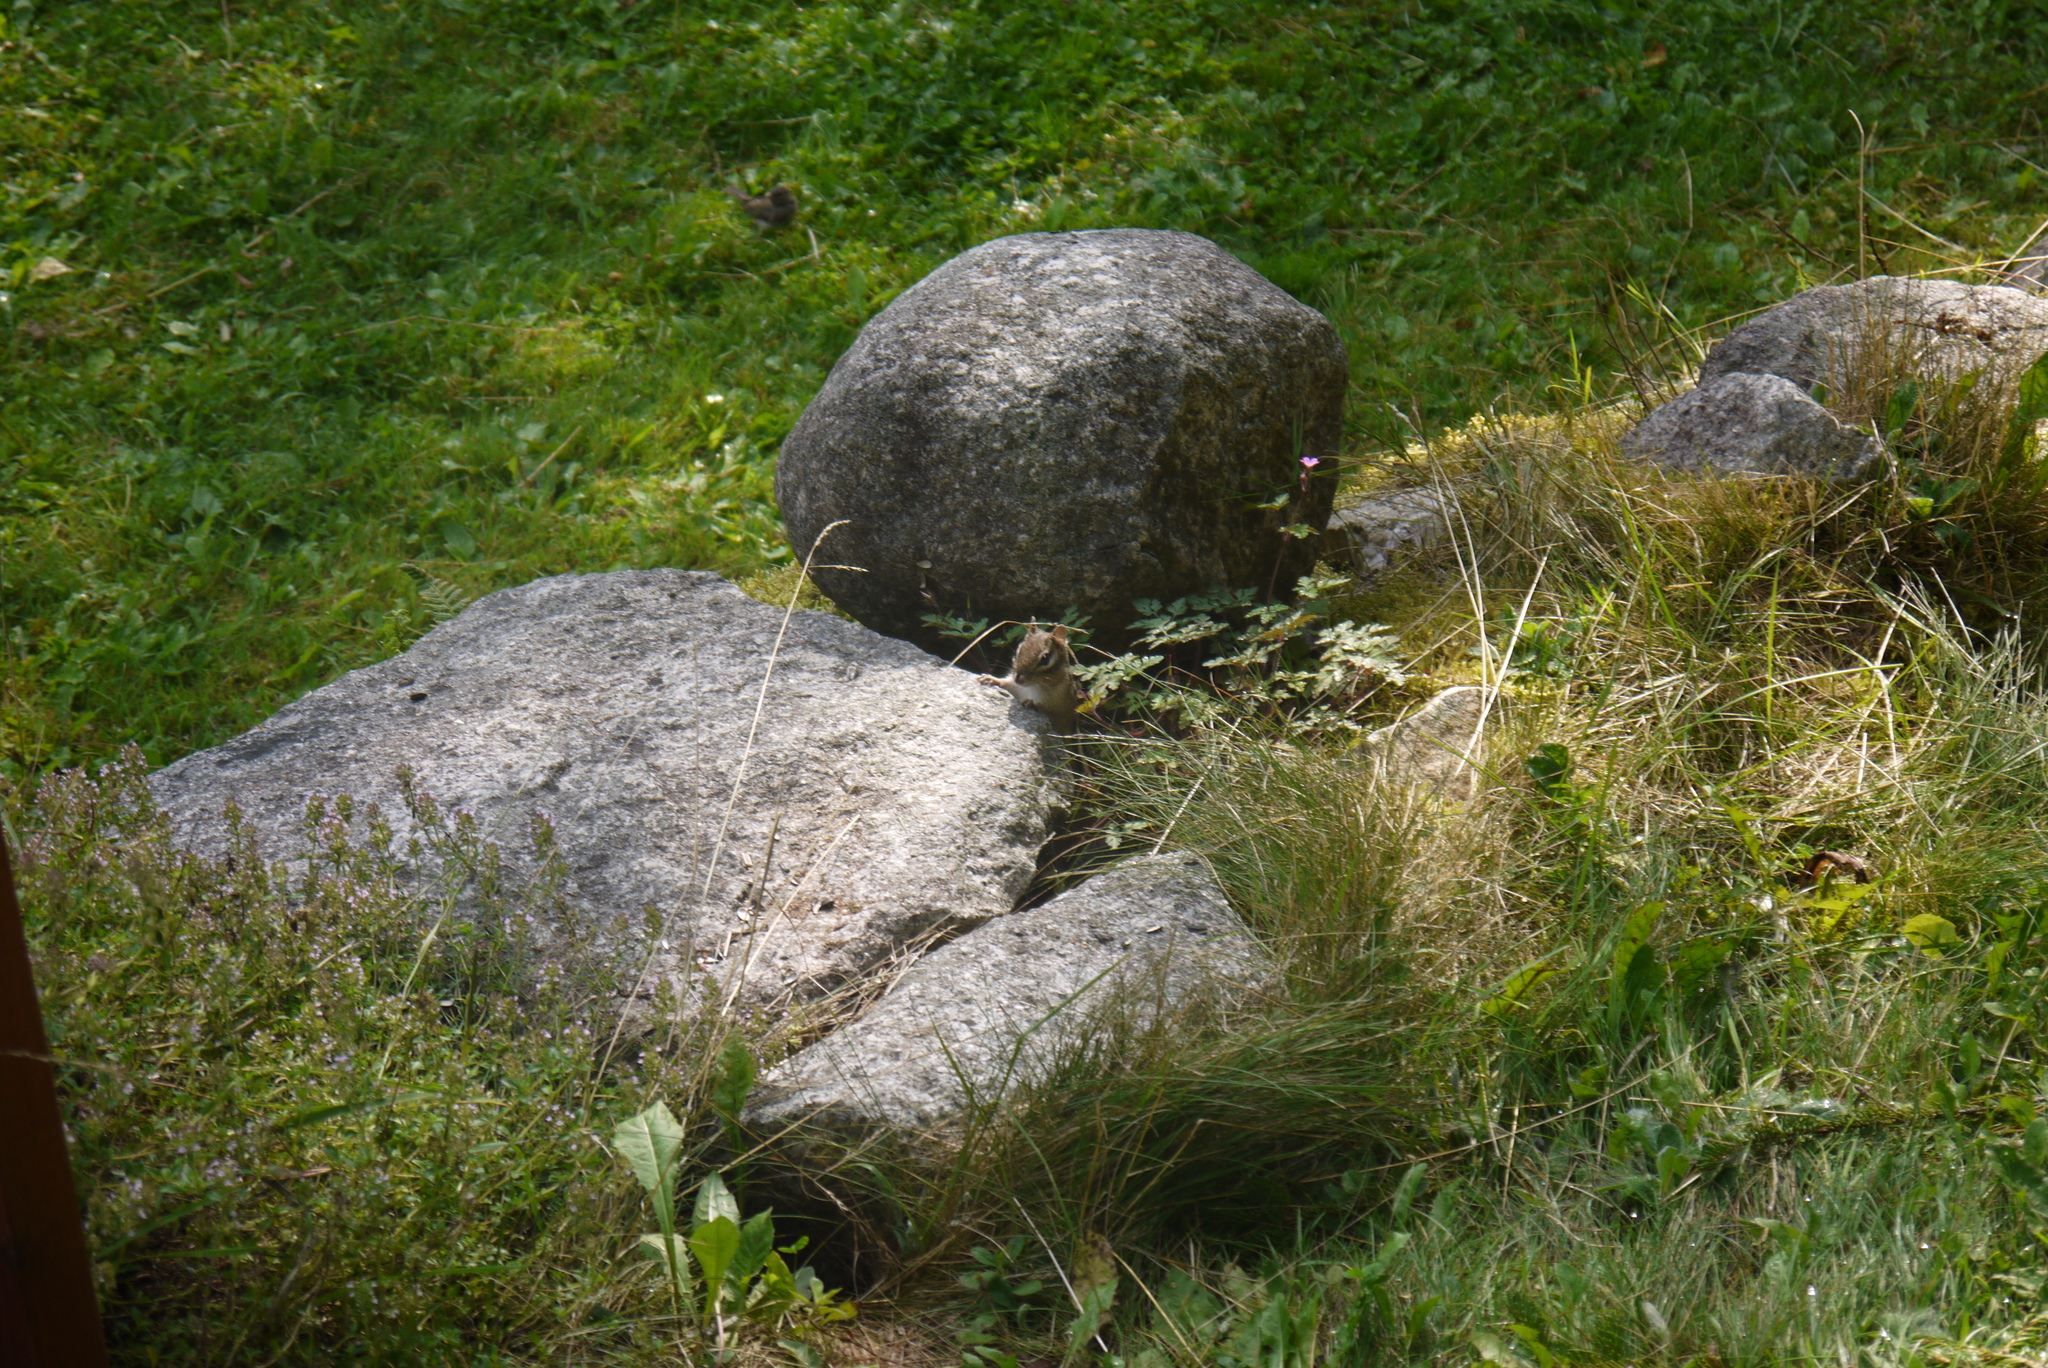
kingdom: Animalia
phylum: Chordata
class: Mammalia
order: Rodentia
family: Sciuridae
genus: Tamias
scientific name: Tamias striatus
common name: Eastern chipmunk
